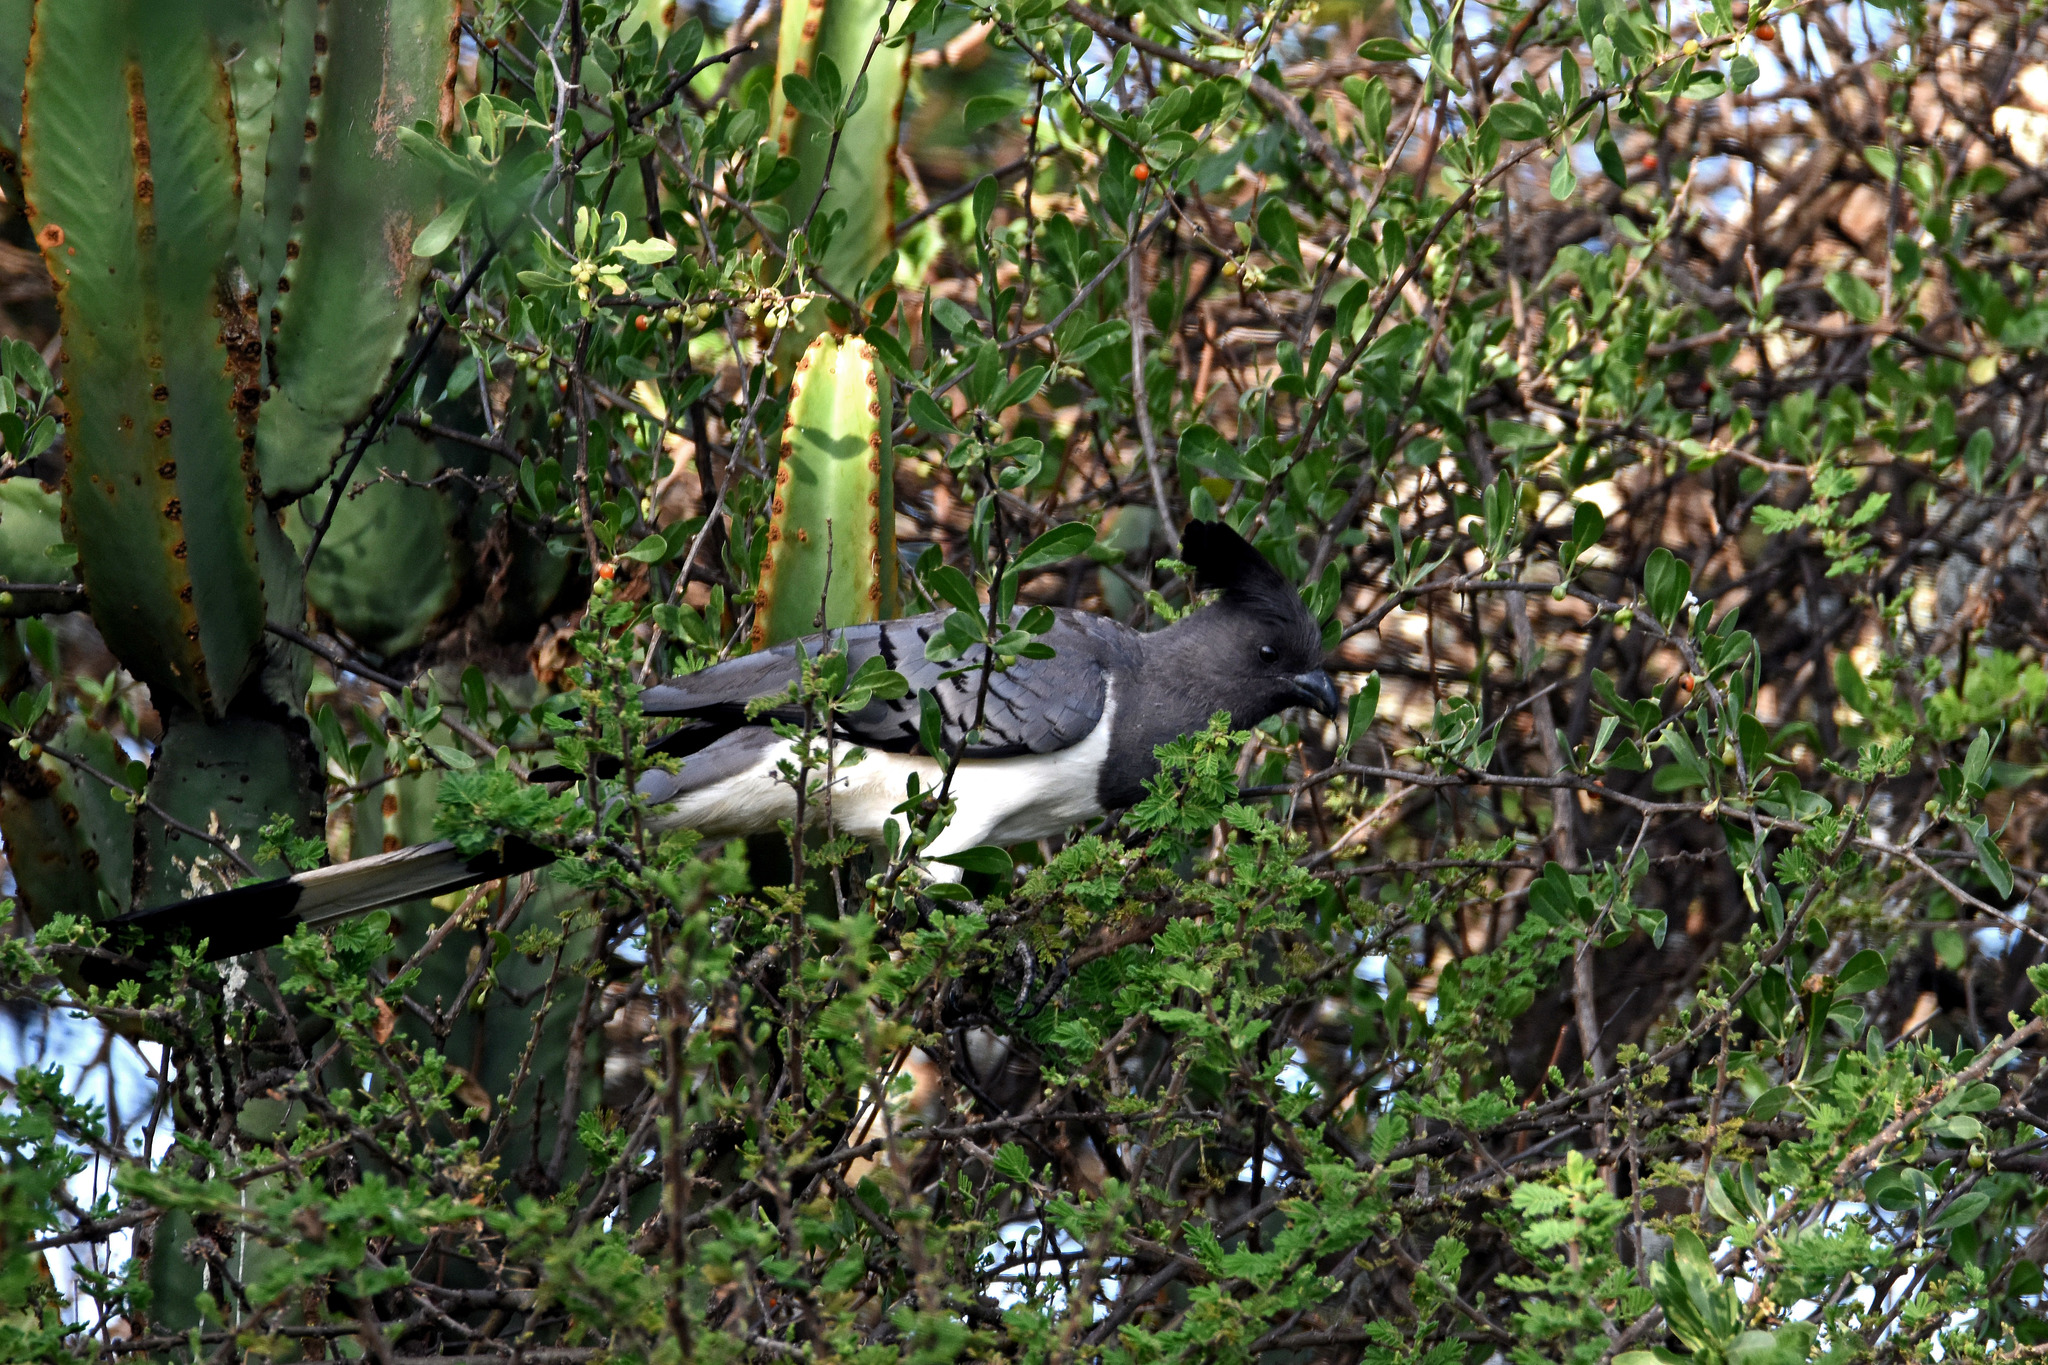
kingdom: Animalia
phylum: Chordata
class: Aves
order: Musophagiformes
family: Musophagidae
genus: Corythaixoides
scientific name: Corythaixoides leucogaster
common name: White-bellied go-away-bird
